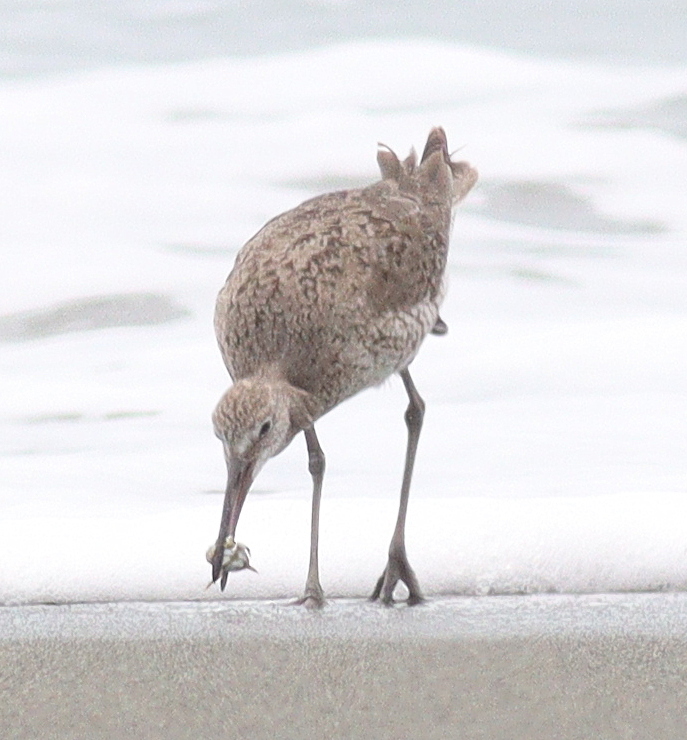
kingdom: Animalia
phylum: Chordata
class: Aves
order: Charadriiformes
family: Scolopacidae
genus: Tringa
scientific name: Tringa semipalmata
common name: Willet
